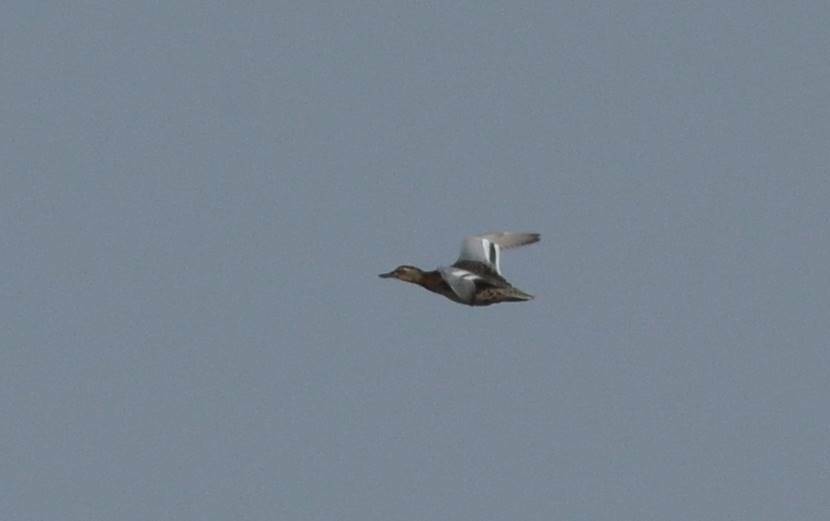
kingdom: Animalia
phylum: Chordata
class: Aves
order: Anseriformes
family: Anatidae
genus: Spatula
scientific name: Spatula querquedula
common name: Garganey
